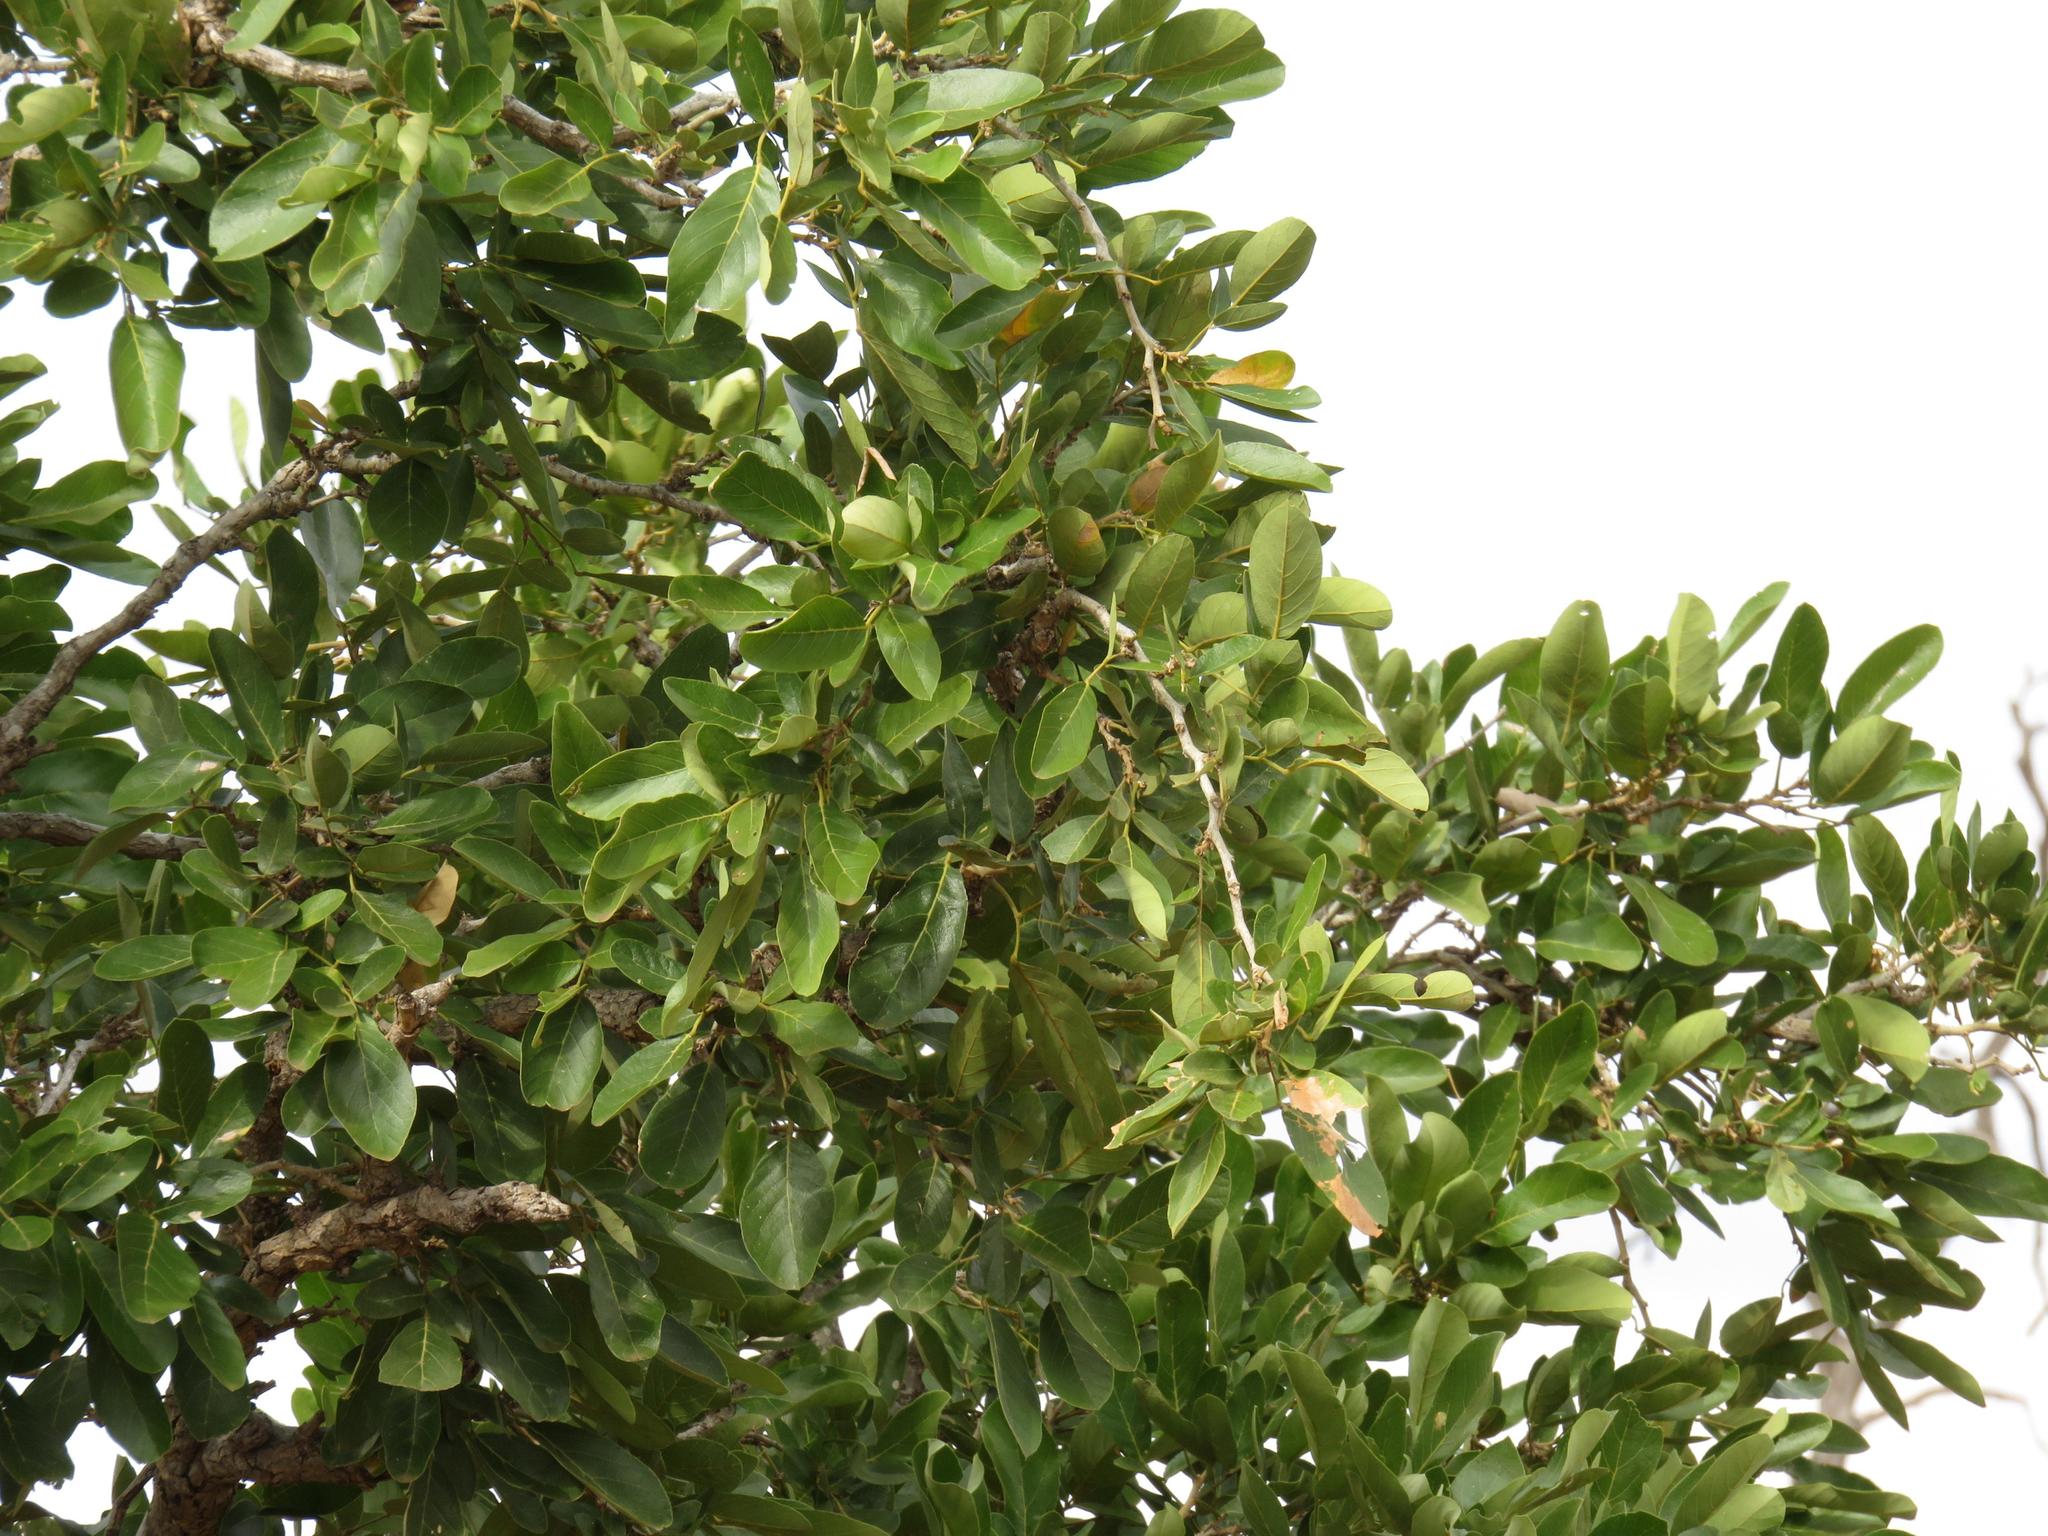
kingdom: Plantae
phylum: Tracheophyta
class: Magnoliopsida
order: Fabales
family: Fabaceae
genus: Philenoptera
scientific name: Philenoptera violacea
